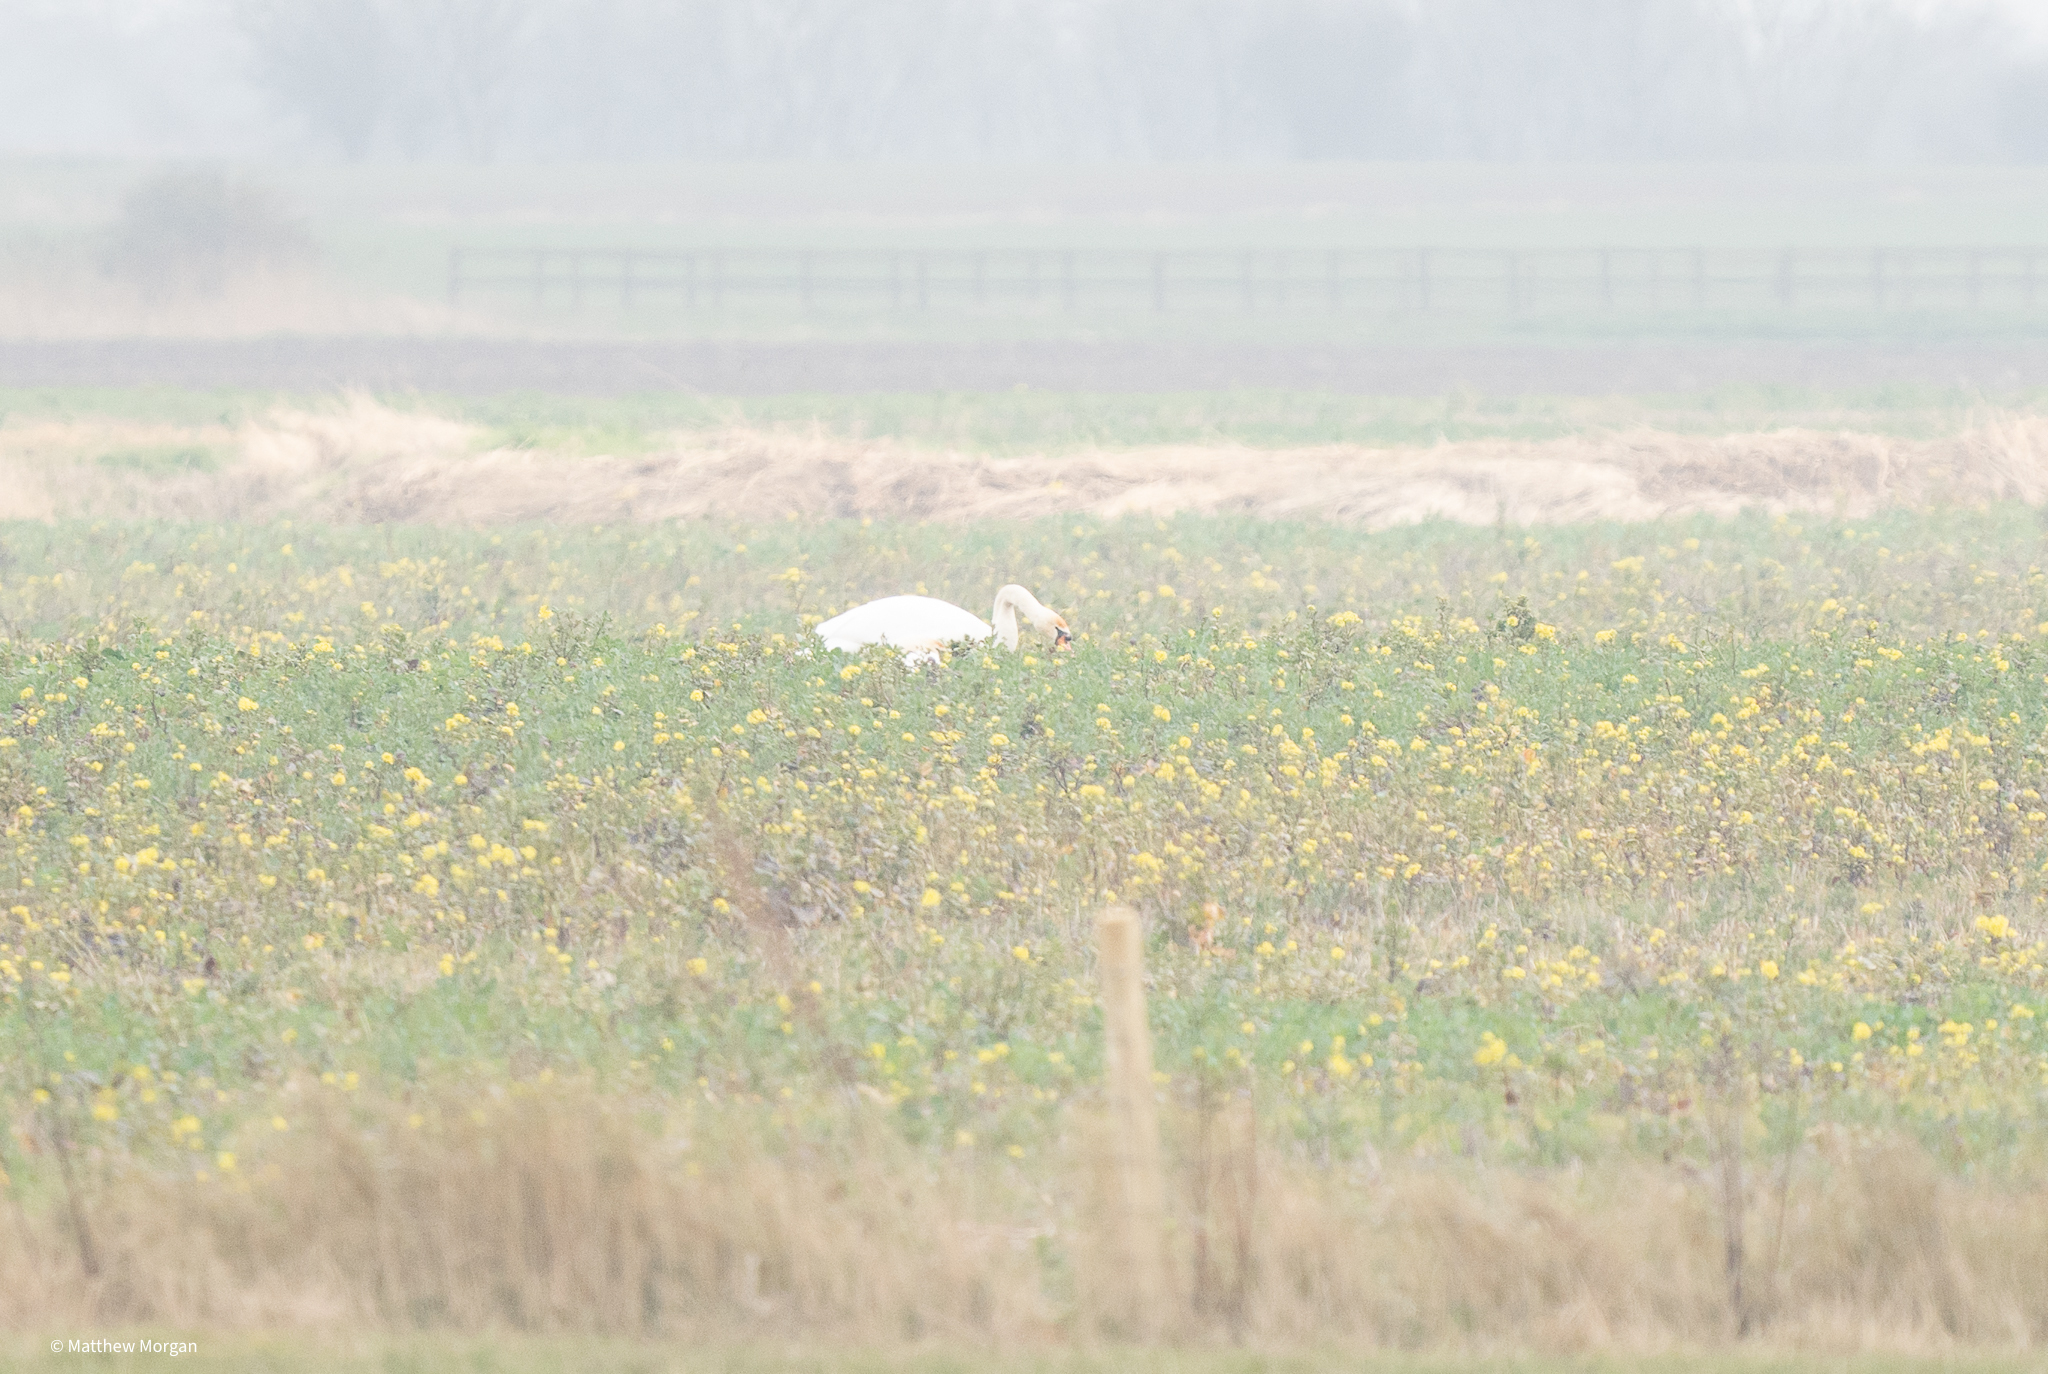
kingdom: Animalia
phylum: Chordata
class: Aves
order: Anseriformes
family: Anatidae
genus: Cygnus
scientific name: Cygnus olor
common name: Mute swan
